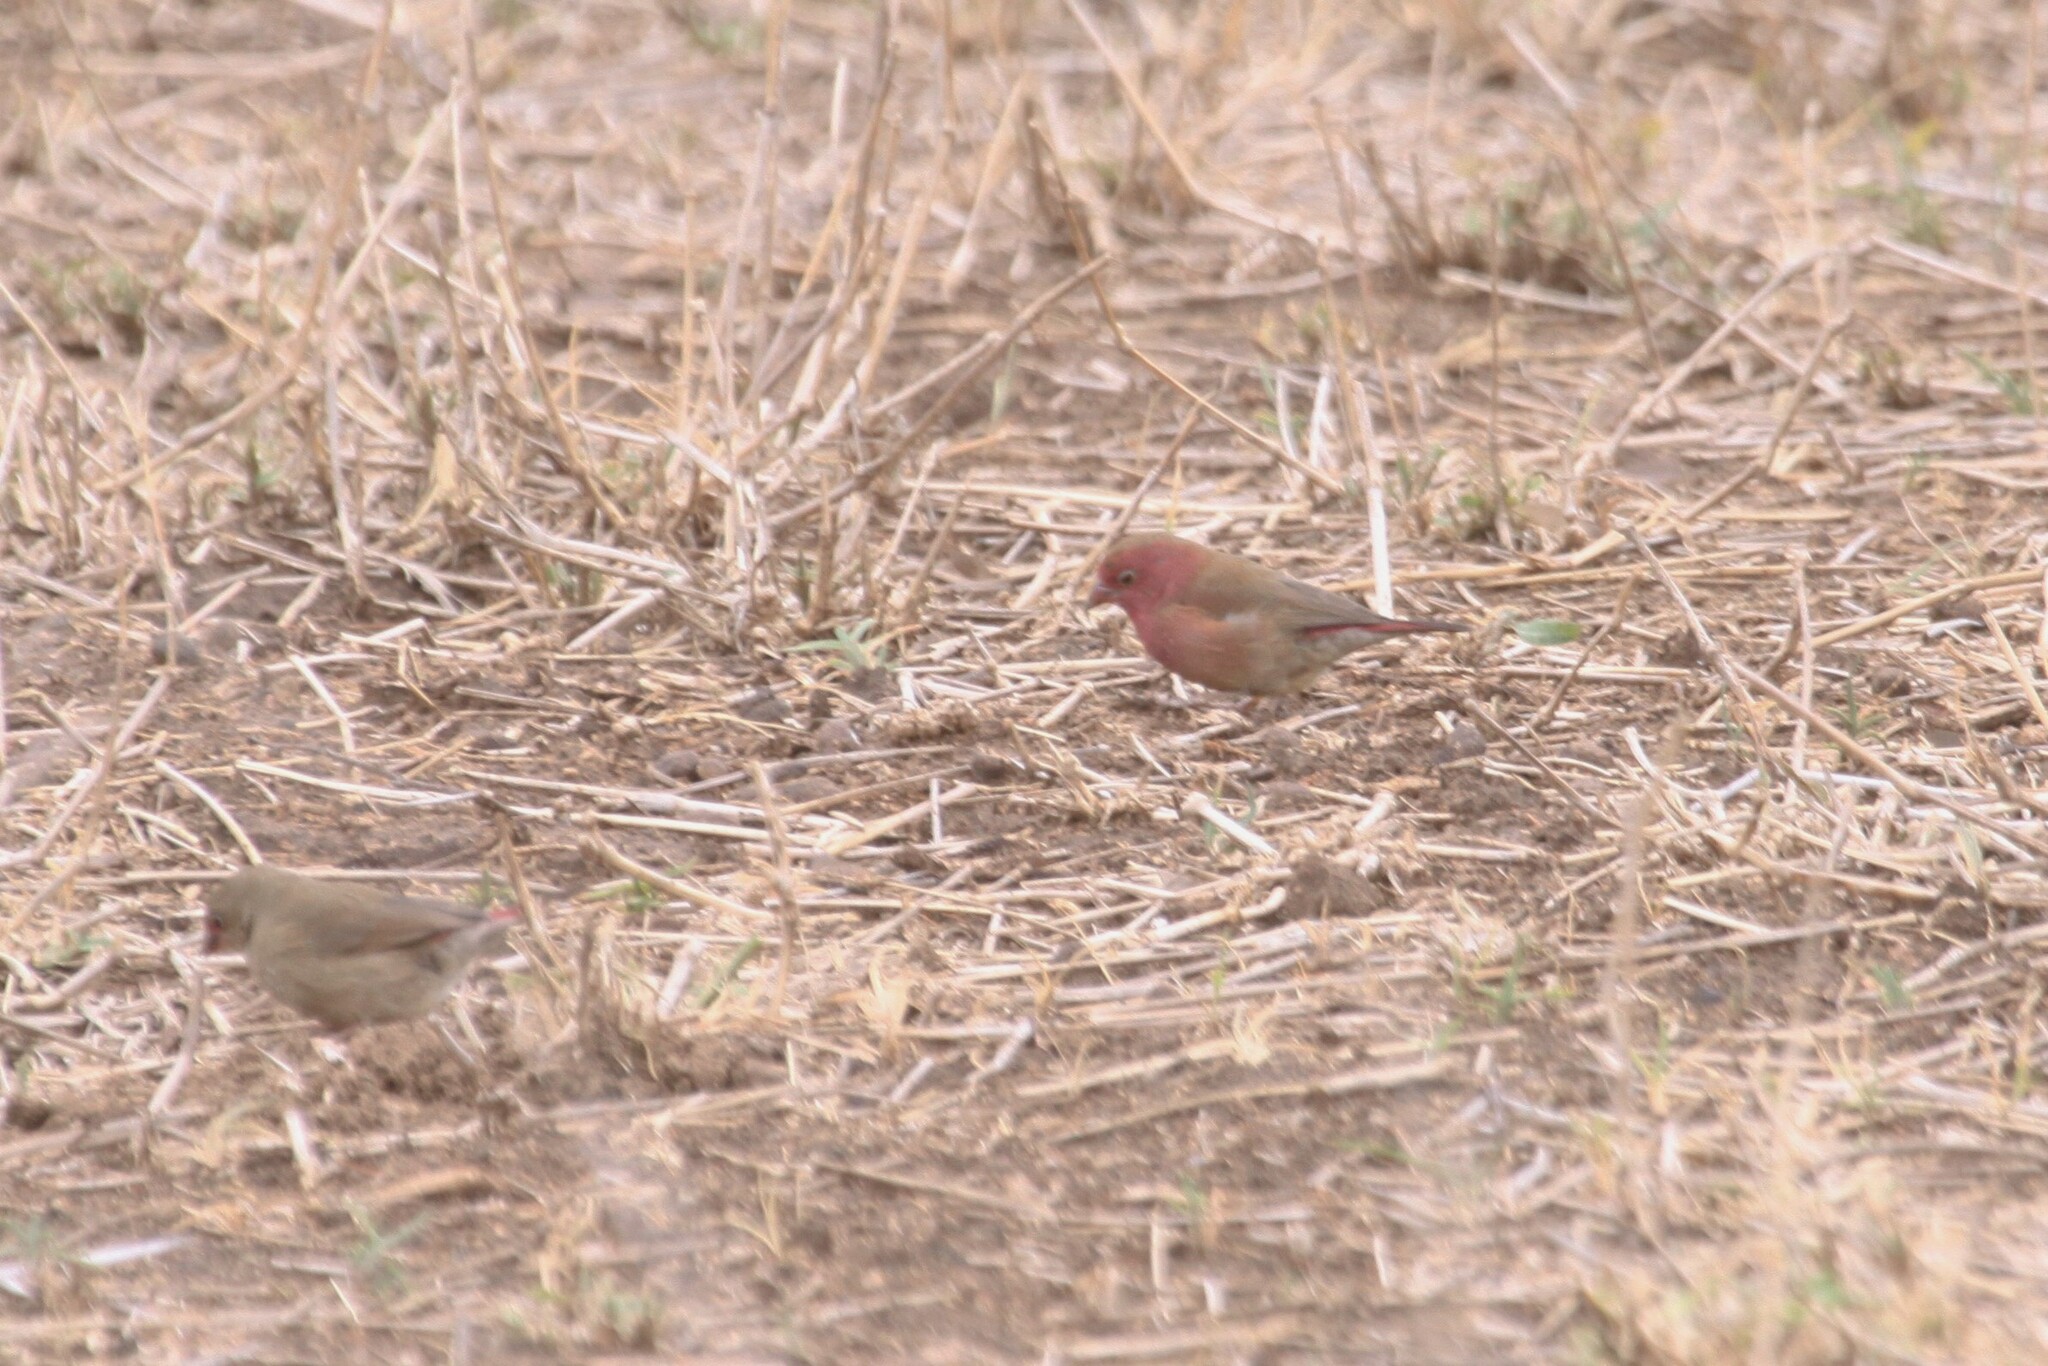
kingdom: Animalia
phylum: Chordata
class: Aves
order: Passeriformes
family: Estrildidae
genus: Lagonosticta
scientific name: Lagonosticta senegala
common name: Red-billed firefinch
